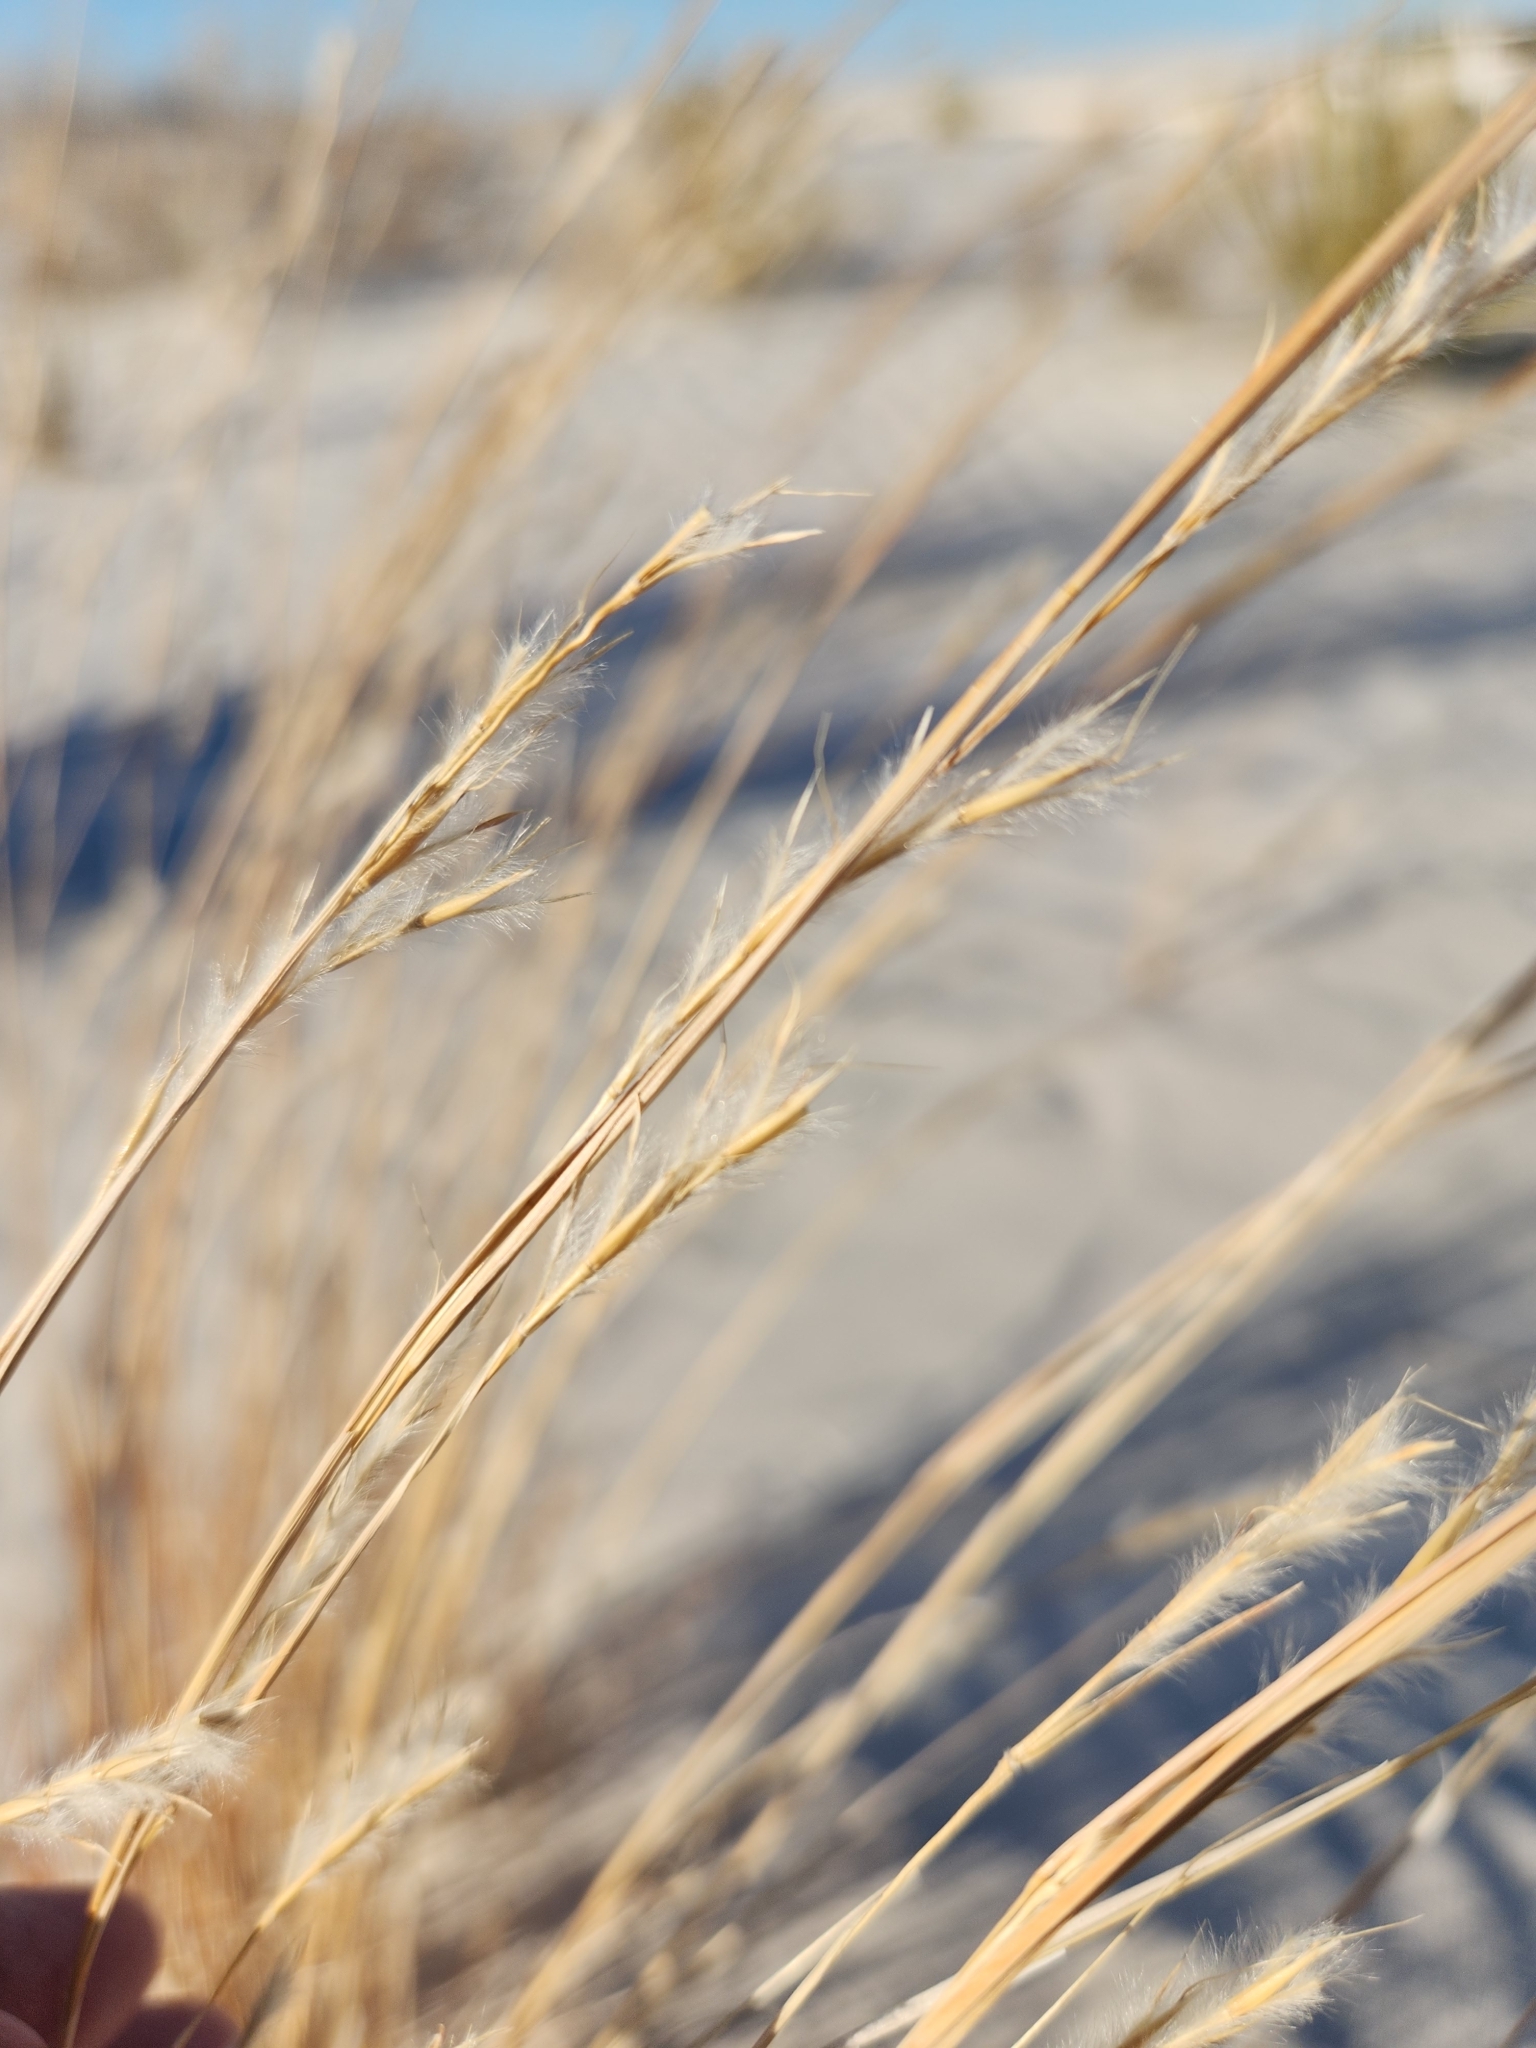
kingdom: Plantae
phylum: Tracheophyta
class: Liliopsida
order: Poales
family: Poaceae
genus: Schizachyrium
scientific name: Schizachyrium scoparium
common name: Little bluestem
